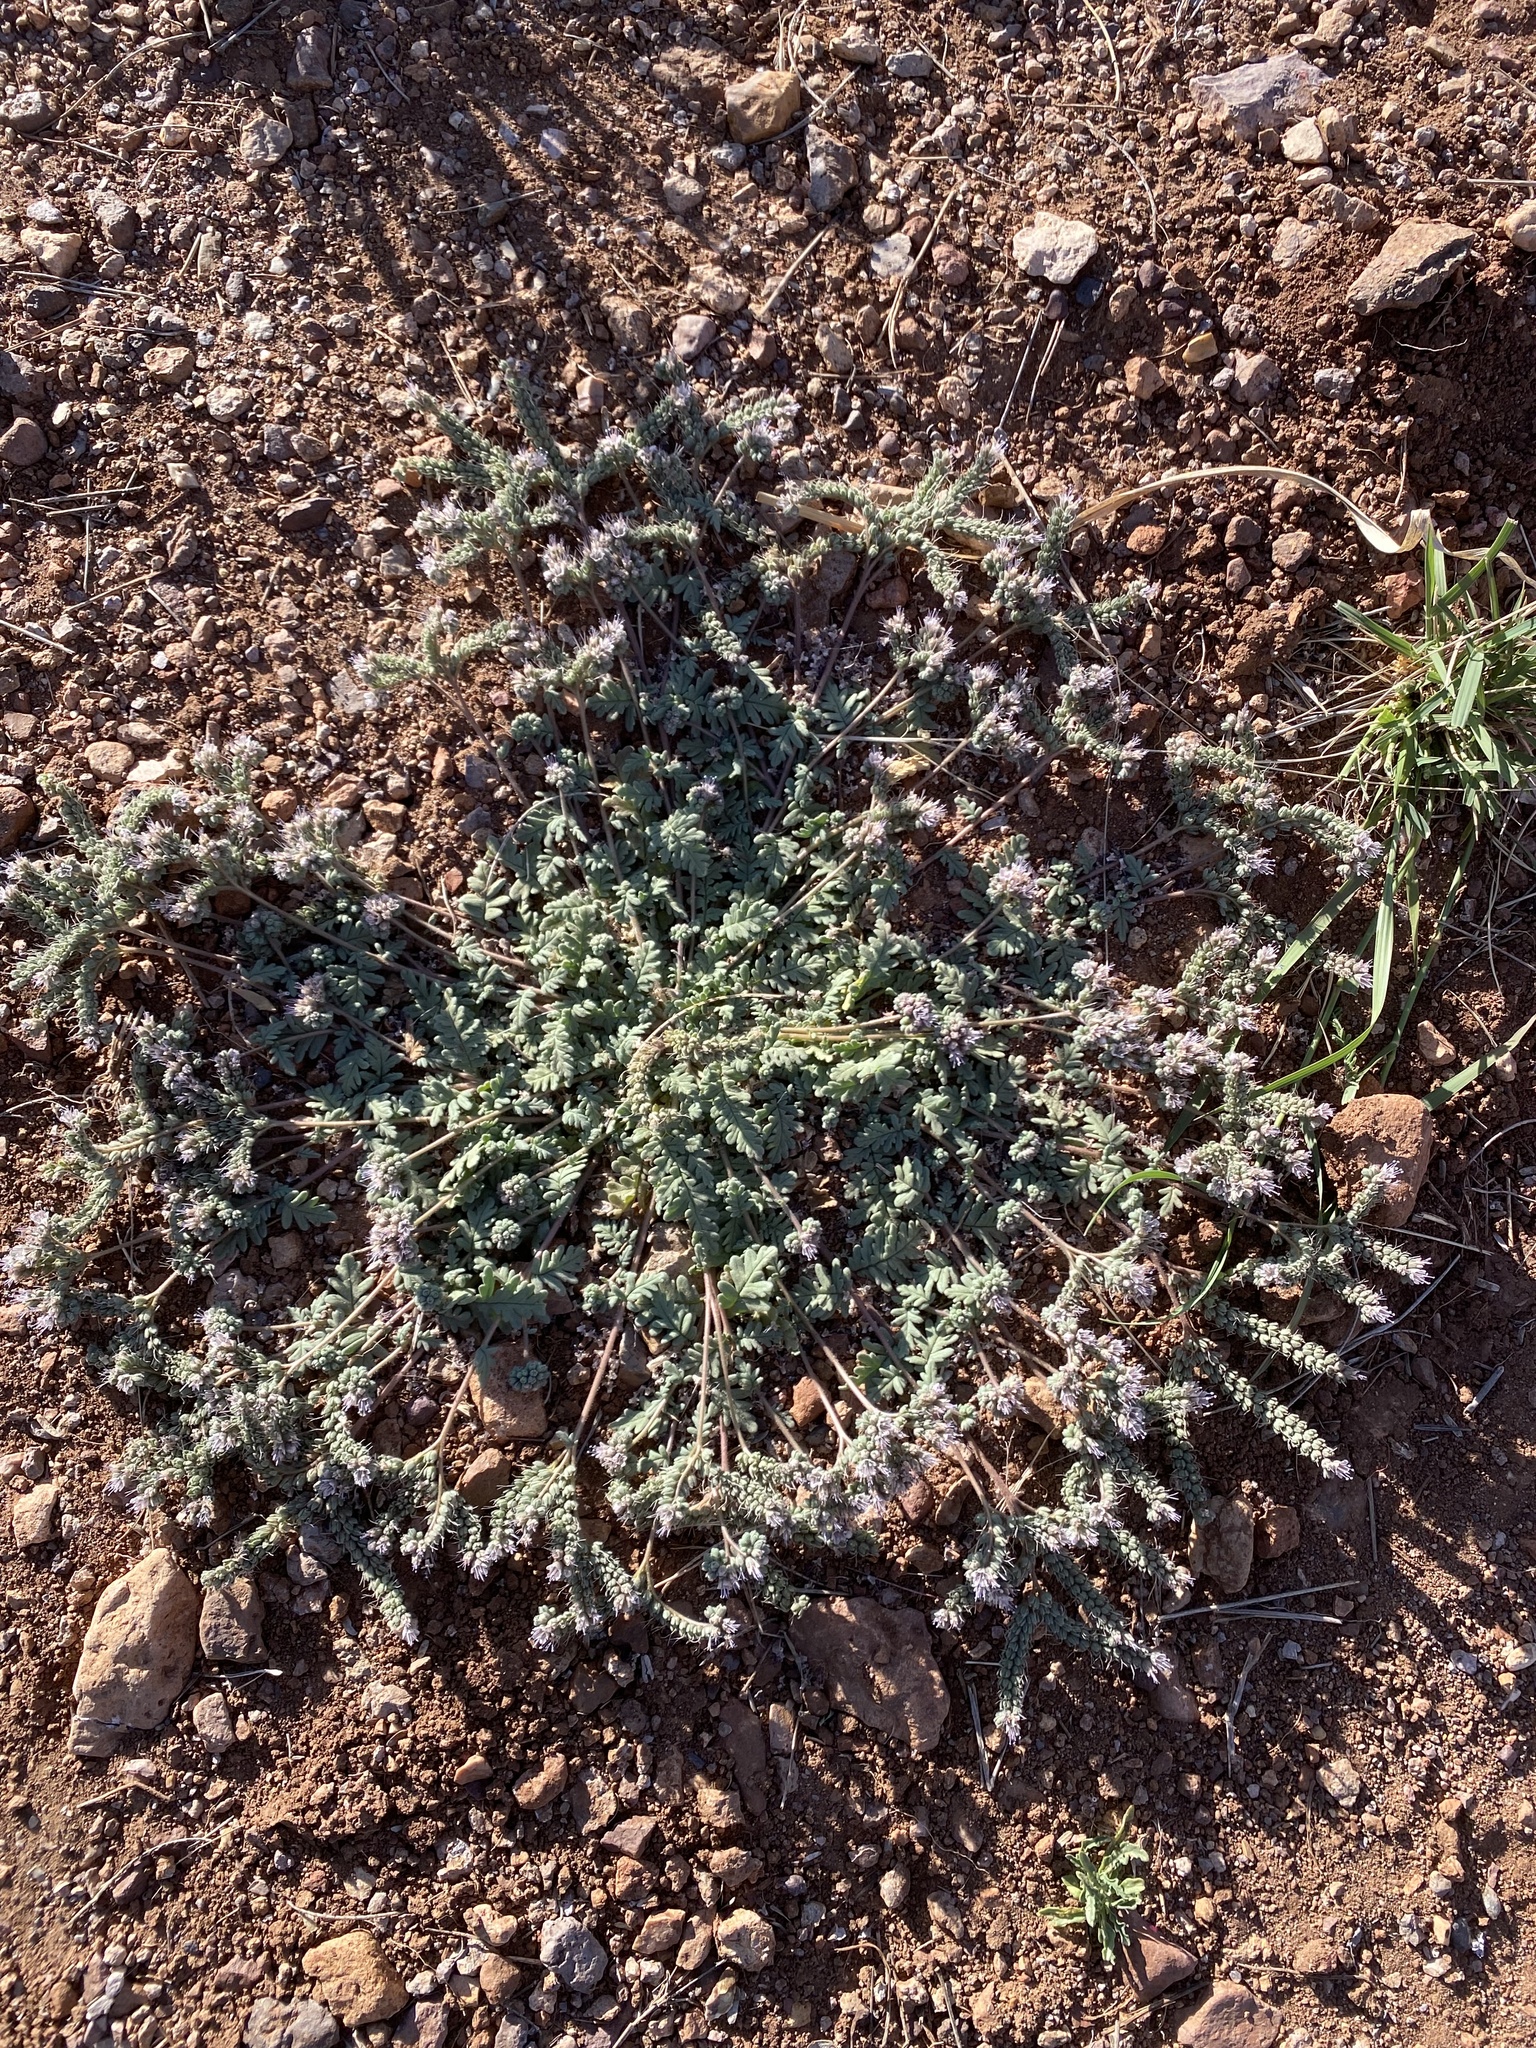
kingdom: Plantae
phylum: Tracheophyta
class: Magnoliopsida
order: Boraginales
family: Hydrophyllaceae
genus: Phacelia
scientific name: Phacelia arizonica
